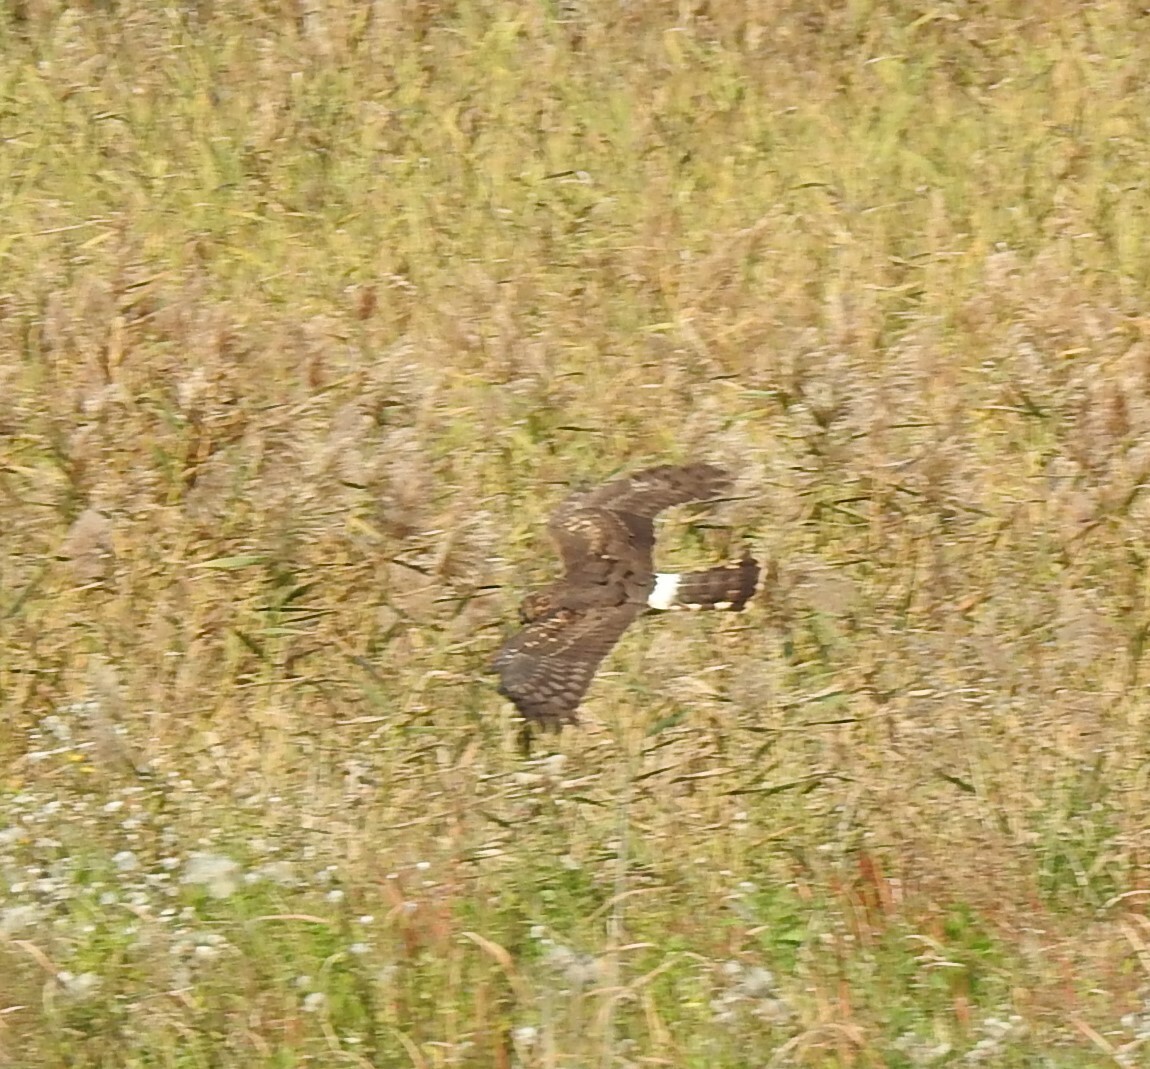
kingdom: Animalia
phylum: Chordata
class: Aves
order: Accipitriformes
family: Accipitridae
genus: Circus
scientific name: Circus cyaneus
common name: Hen harrier
